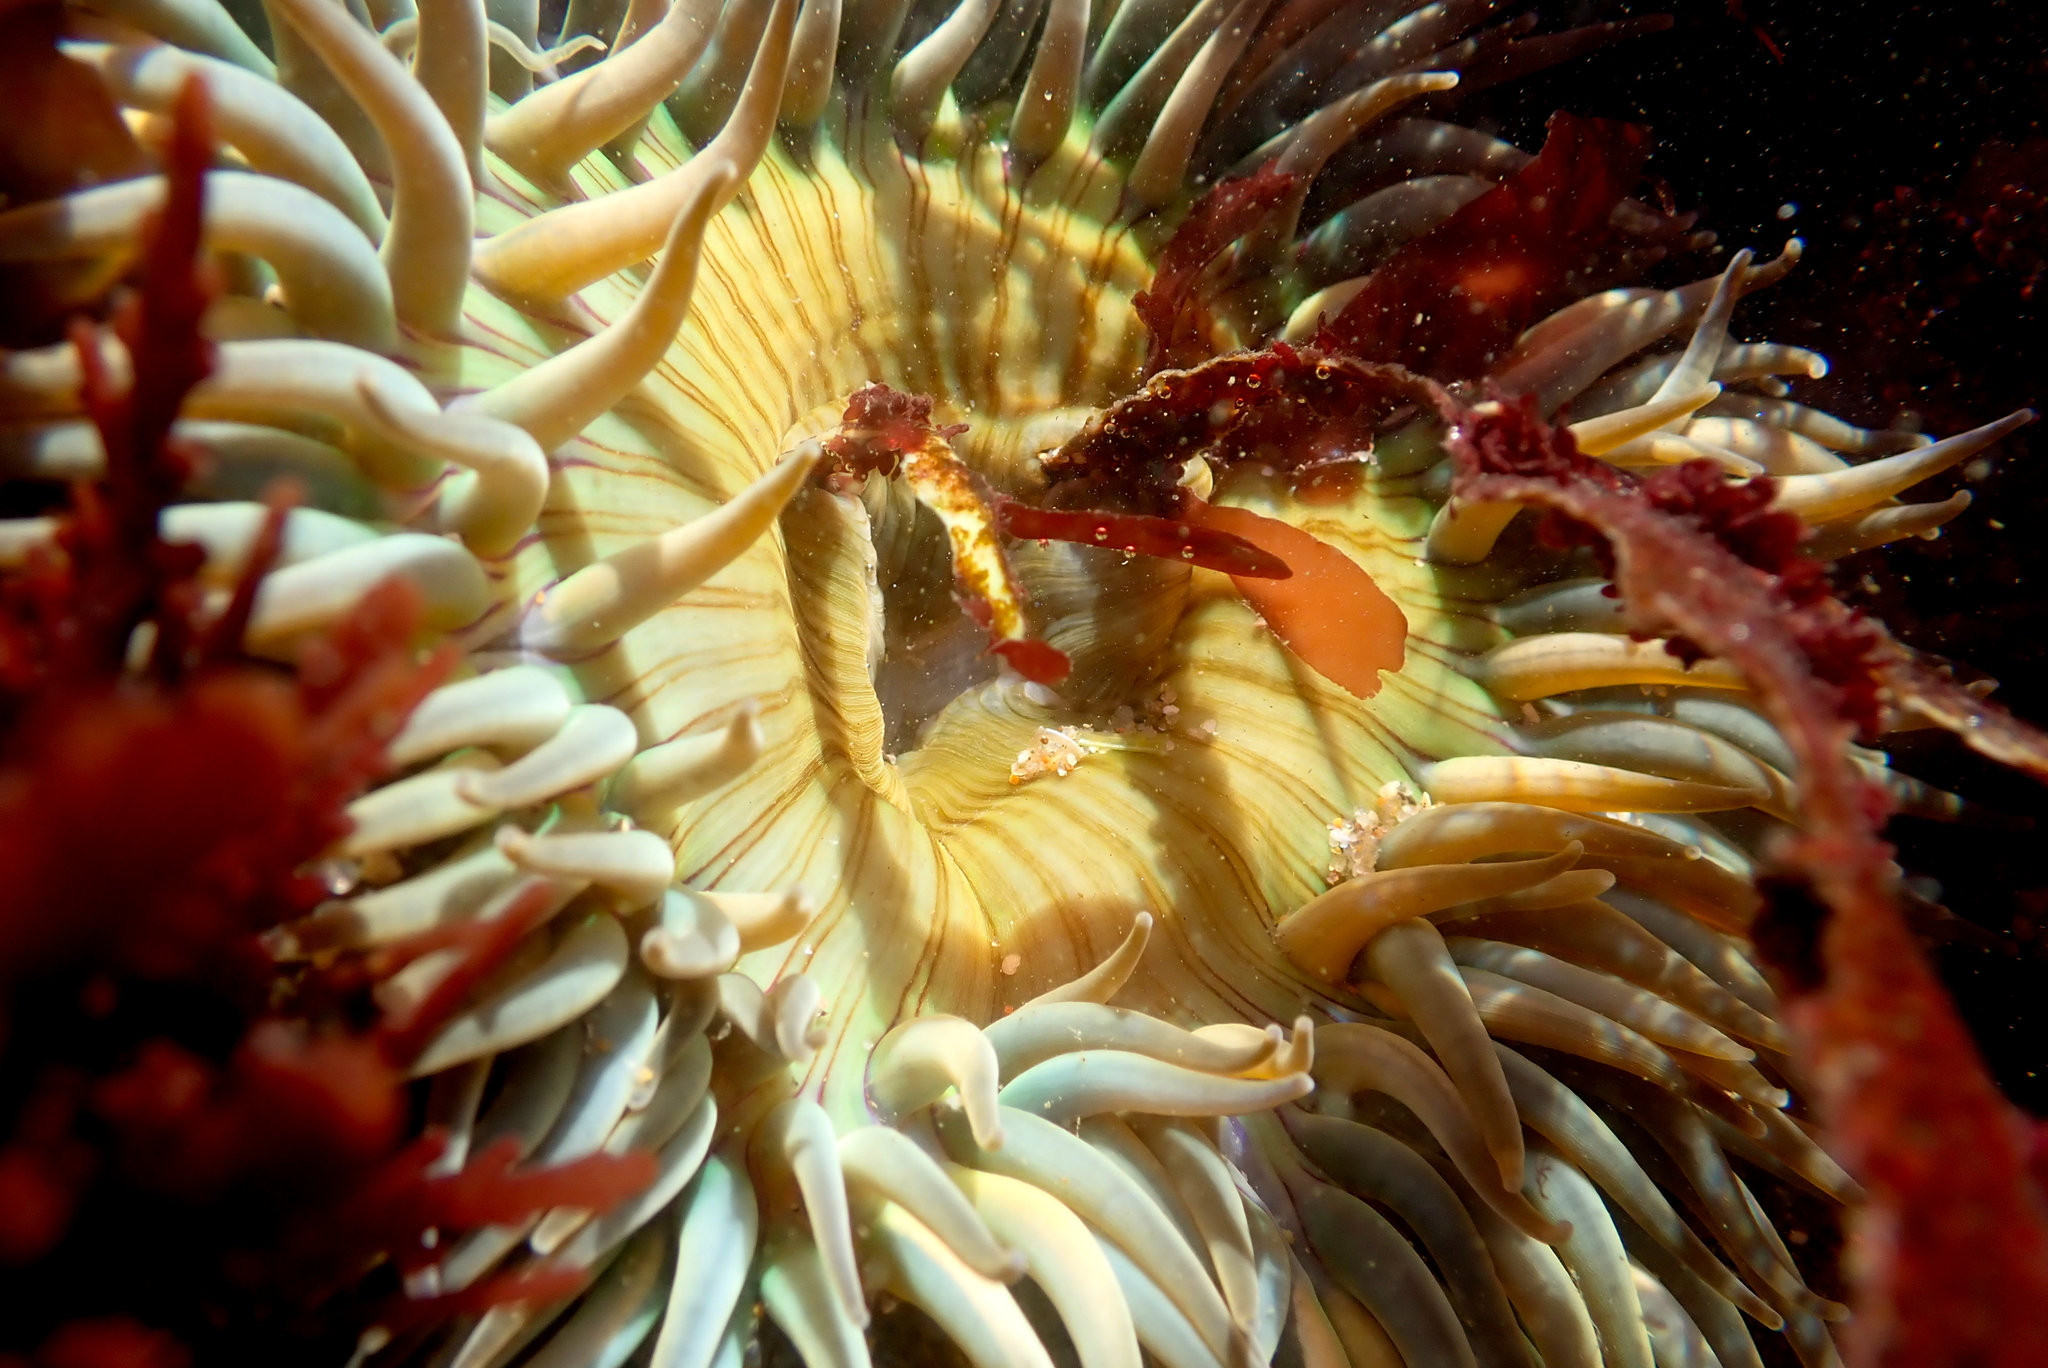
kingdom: Animalia
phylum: Cnidaria
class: Anthozoa
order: Actiniaria
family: Actiniidae
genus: Anthopleura
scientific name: Anthopleura sola
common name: Sun anemone
